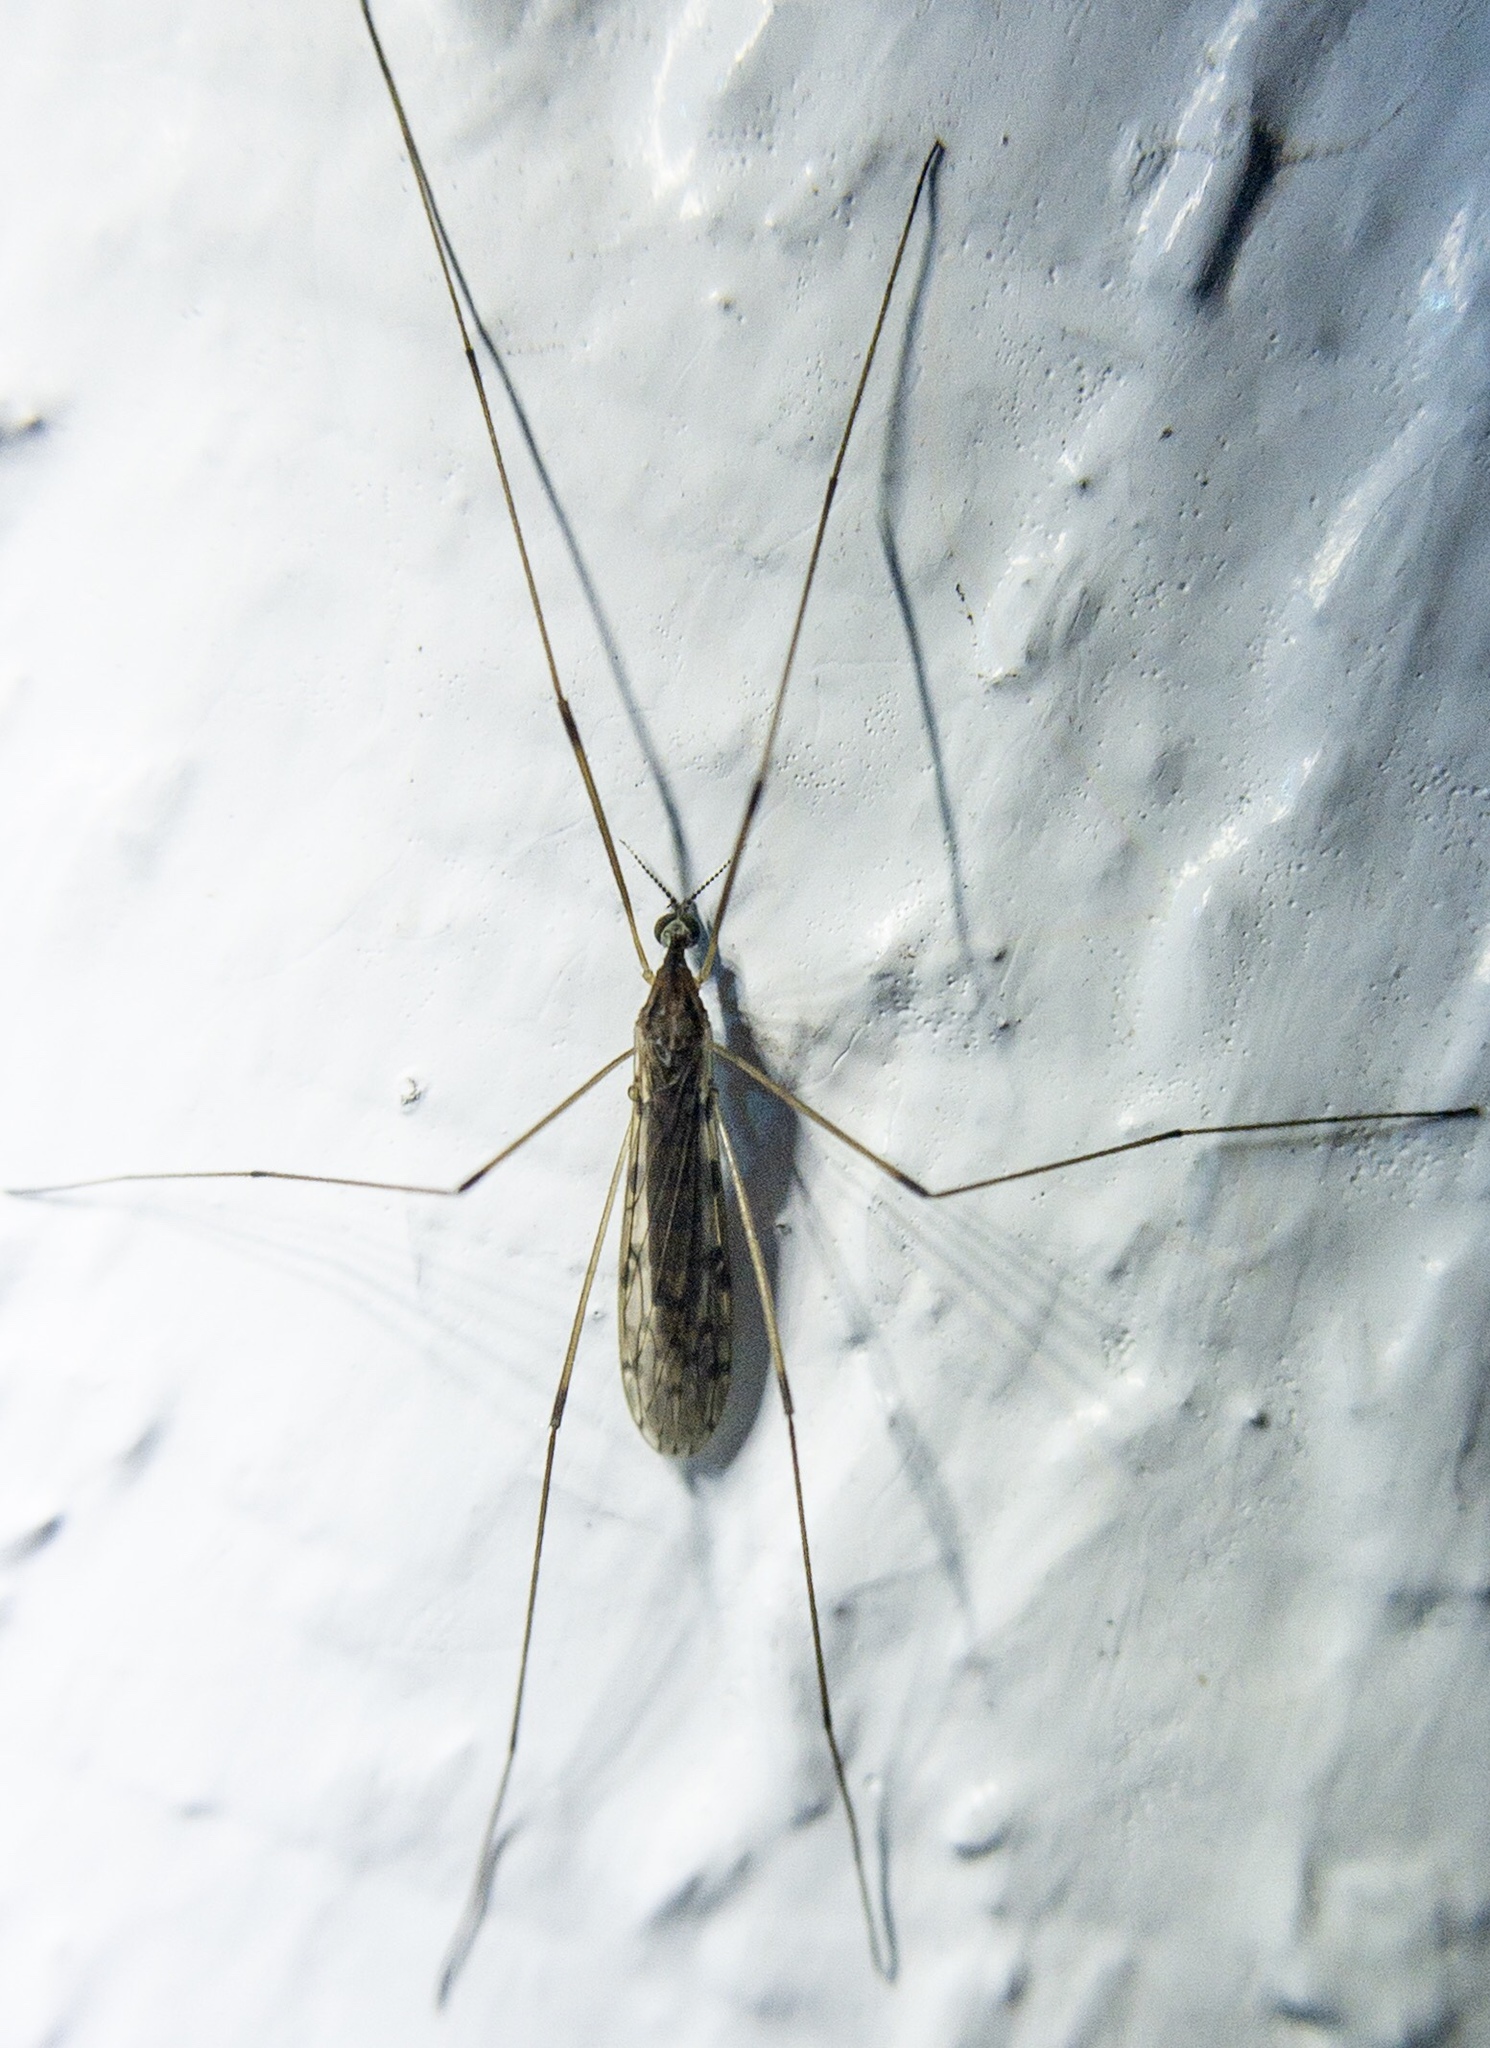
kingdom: Animalia
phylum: Arthropoda
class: Insecta
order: Diptera
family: Limoniidae
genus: Libnotes
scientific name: Libnotes perkinsi
